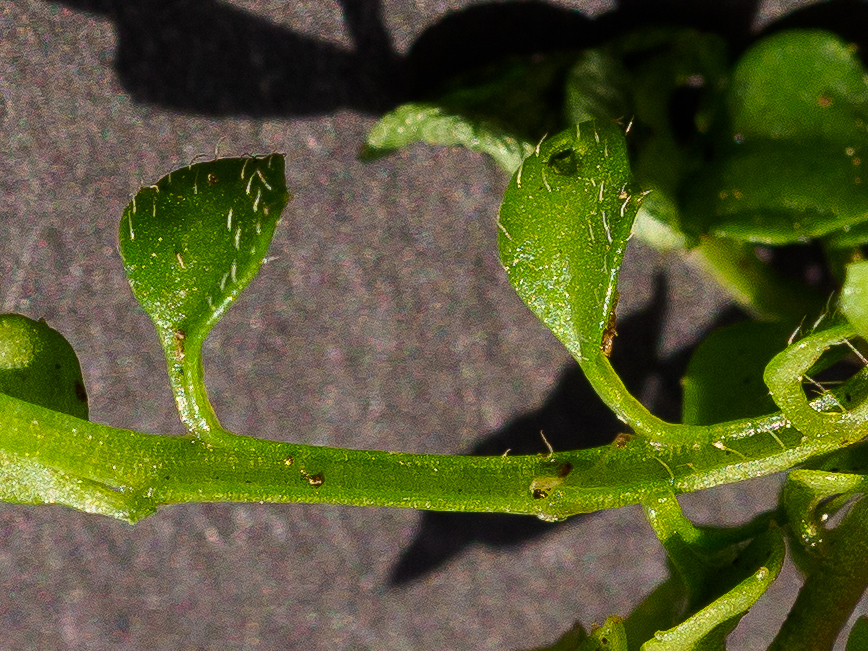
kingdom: Plantae
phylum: Tracheophyta
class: Magnoliopsida
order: Brassicales
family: Brassicaceae
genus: Cardamine
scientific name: Cardamine hirsuta
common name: Hairy bittercress
